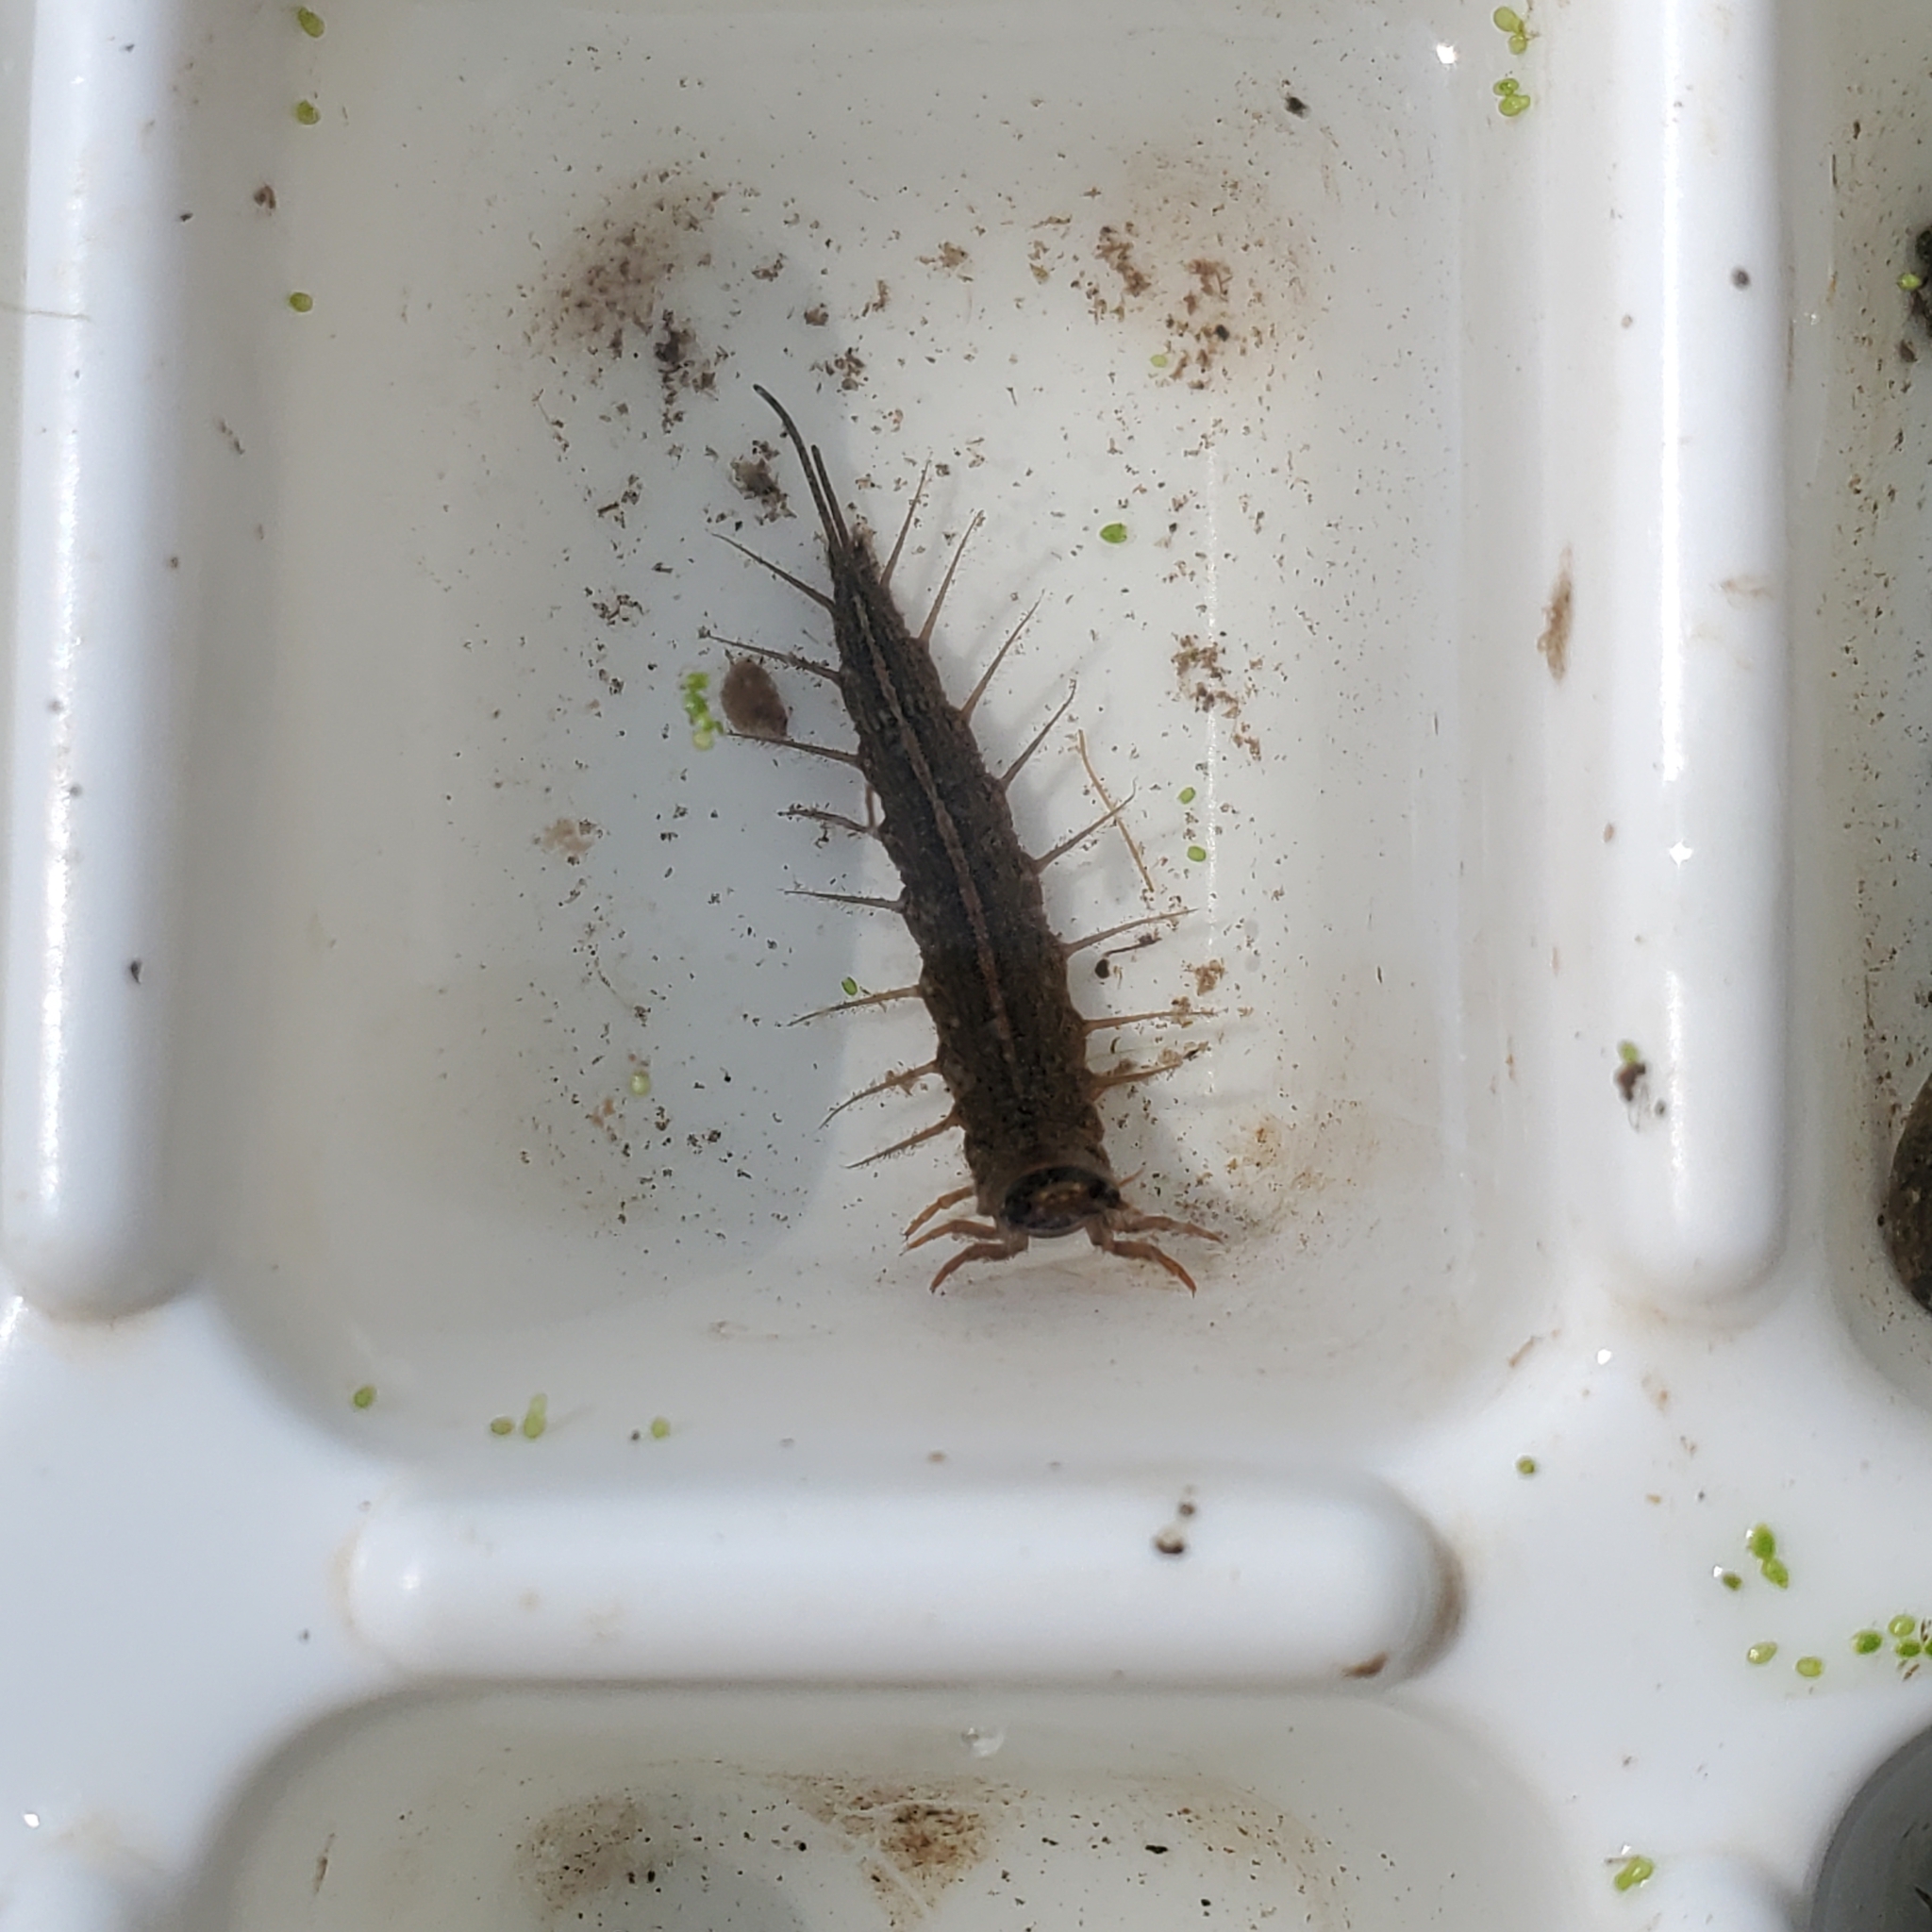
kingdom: Animalia
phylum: Arthropoda
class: Insecta
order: Megaloptera
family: Corydalidae
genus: Chauliodes
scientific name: Chauliodes pectinicornis
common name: Summer fishfly
